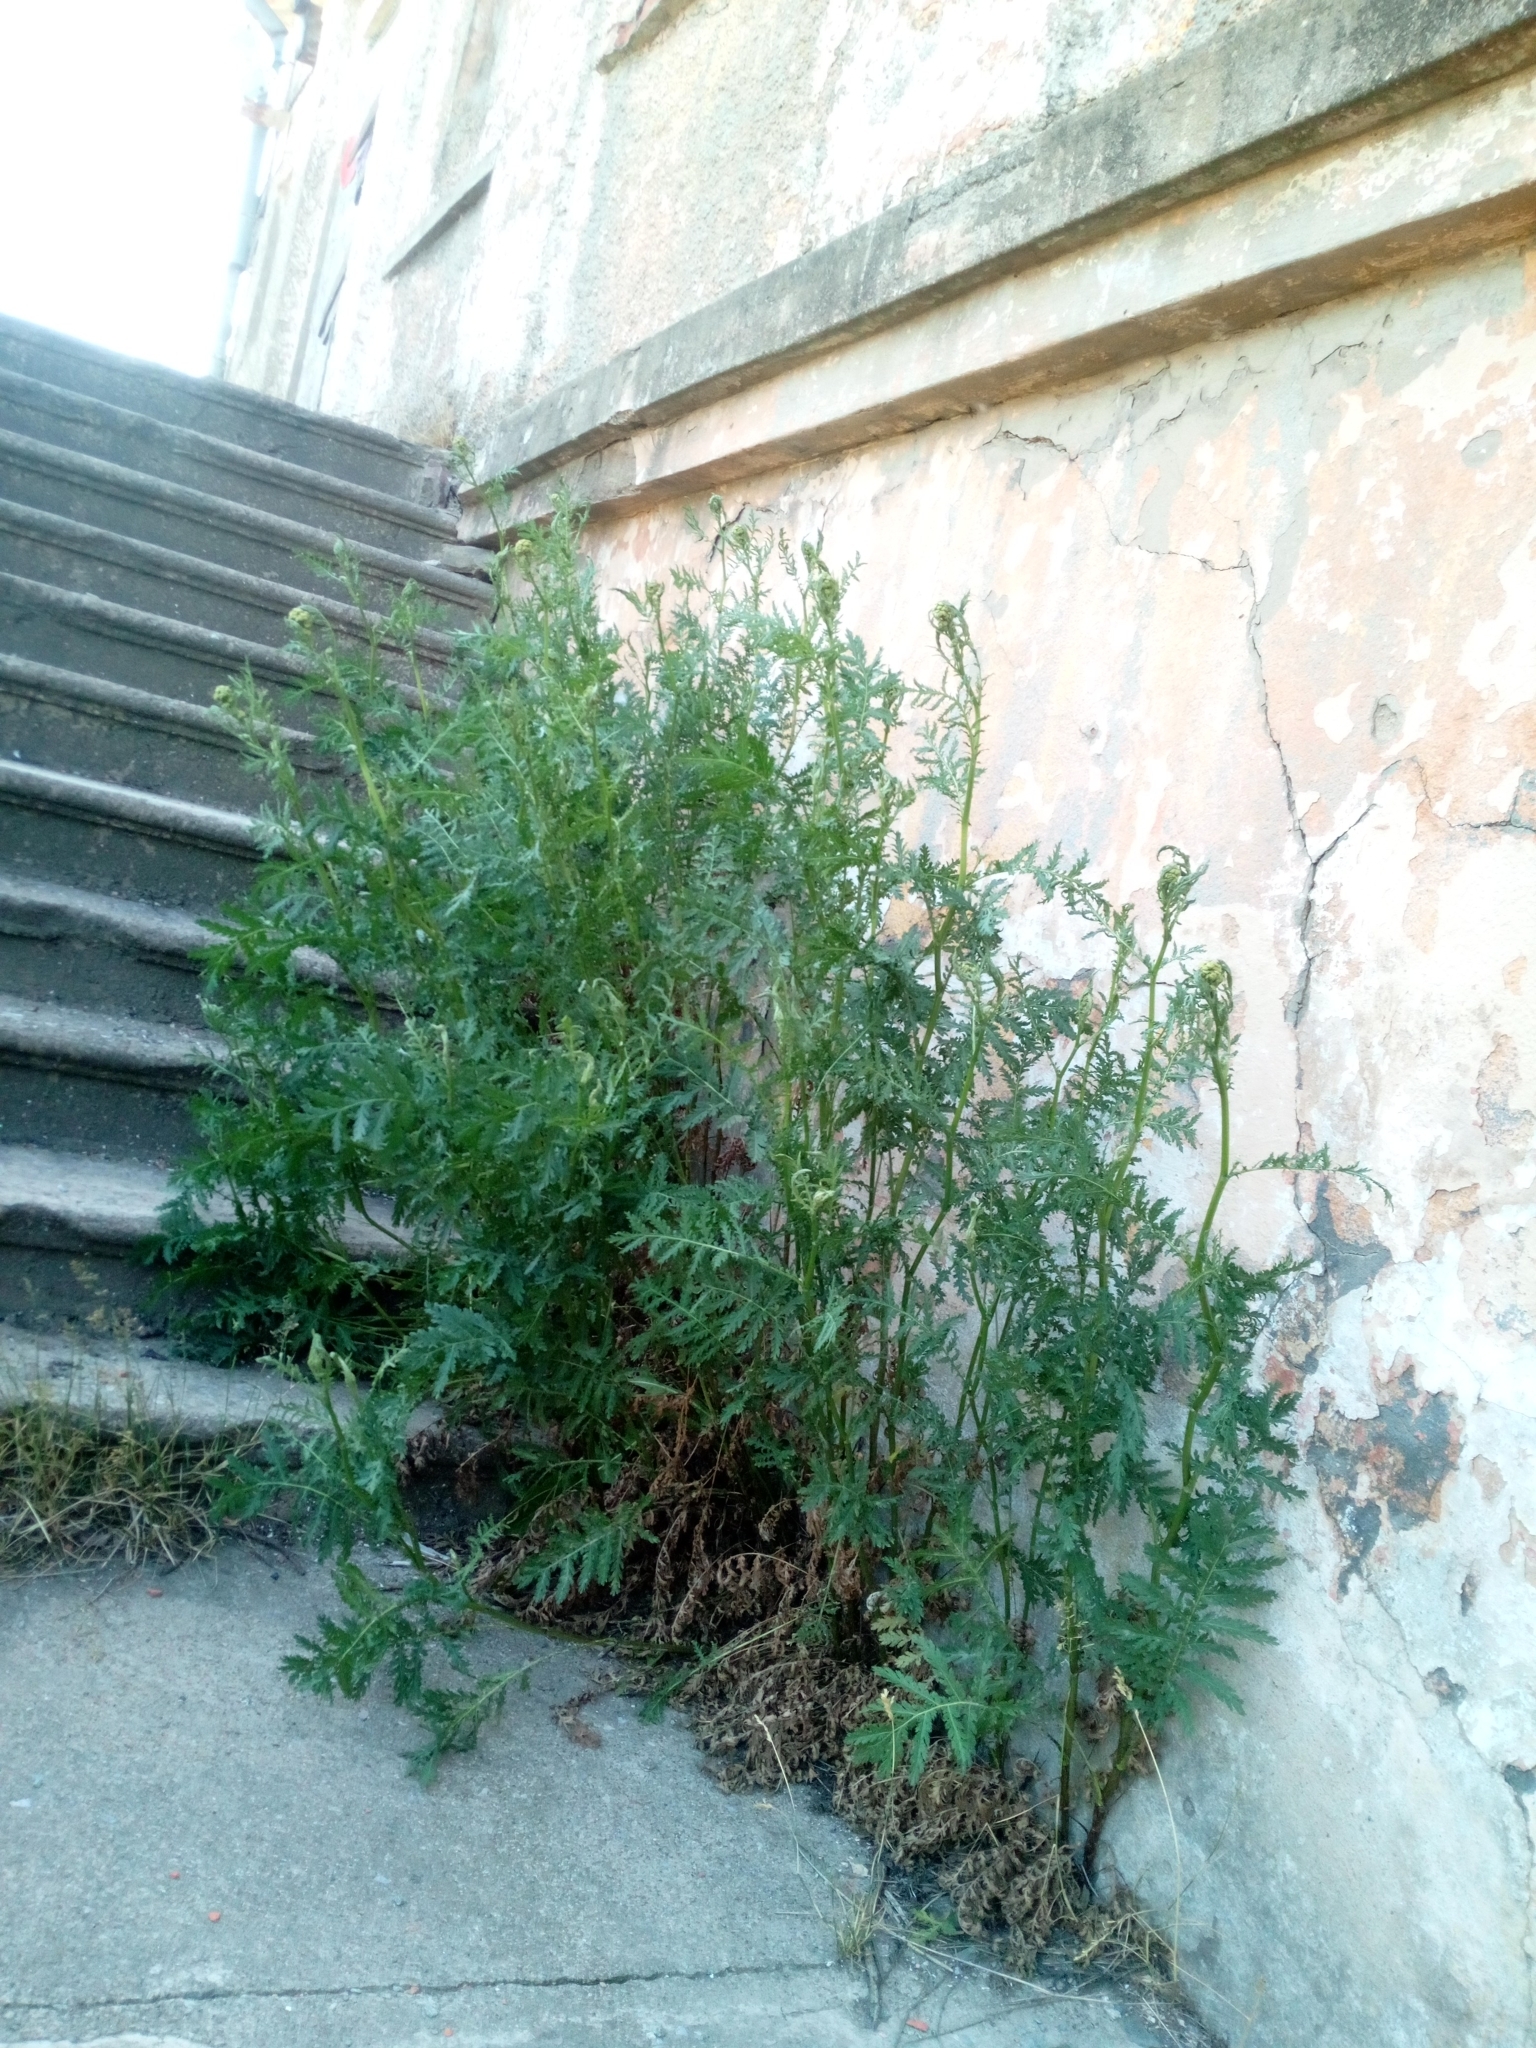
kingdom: Plantae
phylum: Tracheophyta
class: Magnoliopsida
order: Asterales
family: Asteraceae
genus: Tanacetum
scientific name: Tanacetum vulgare
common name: Common tansy
